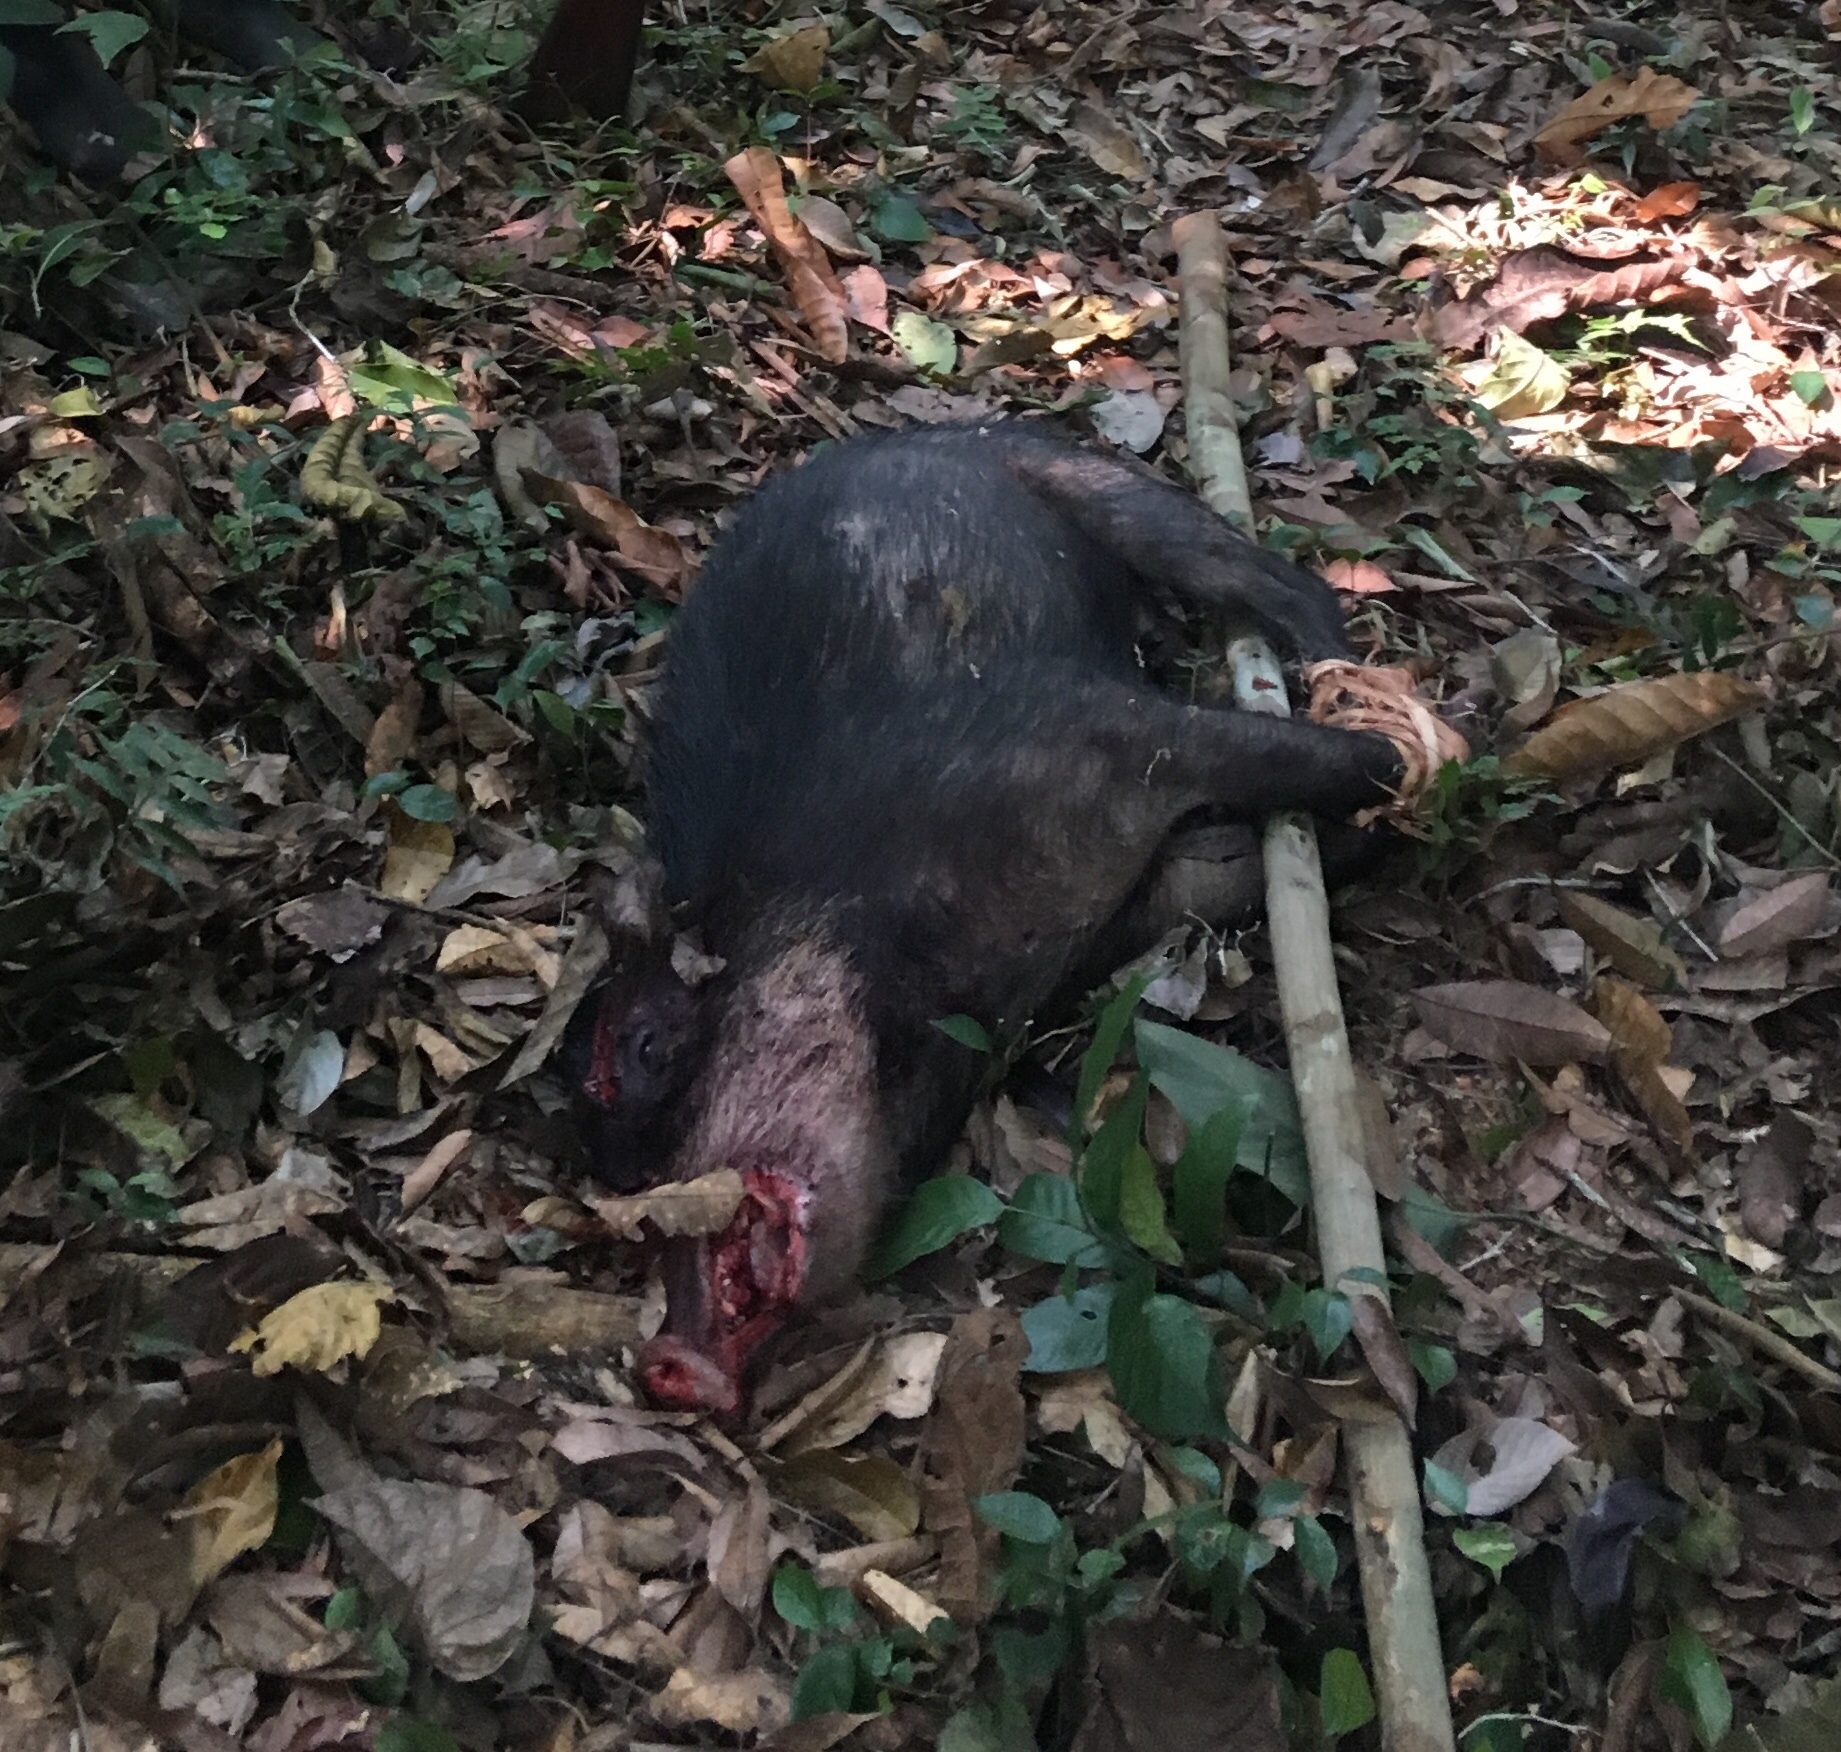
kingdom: Animalia
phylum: Chordata
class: Mammalia
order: Artiodactyla
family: Tayassuidae
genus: Tayassu
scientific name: Tayassu pecari
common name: White-lipped peccary
